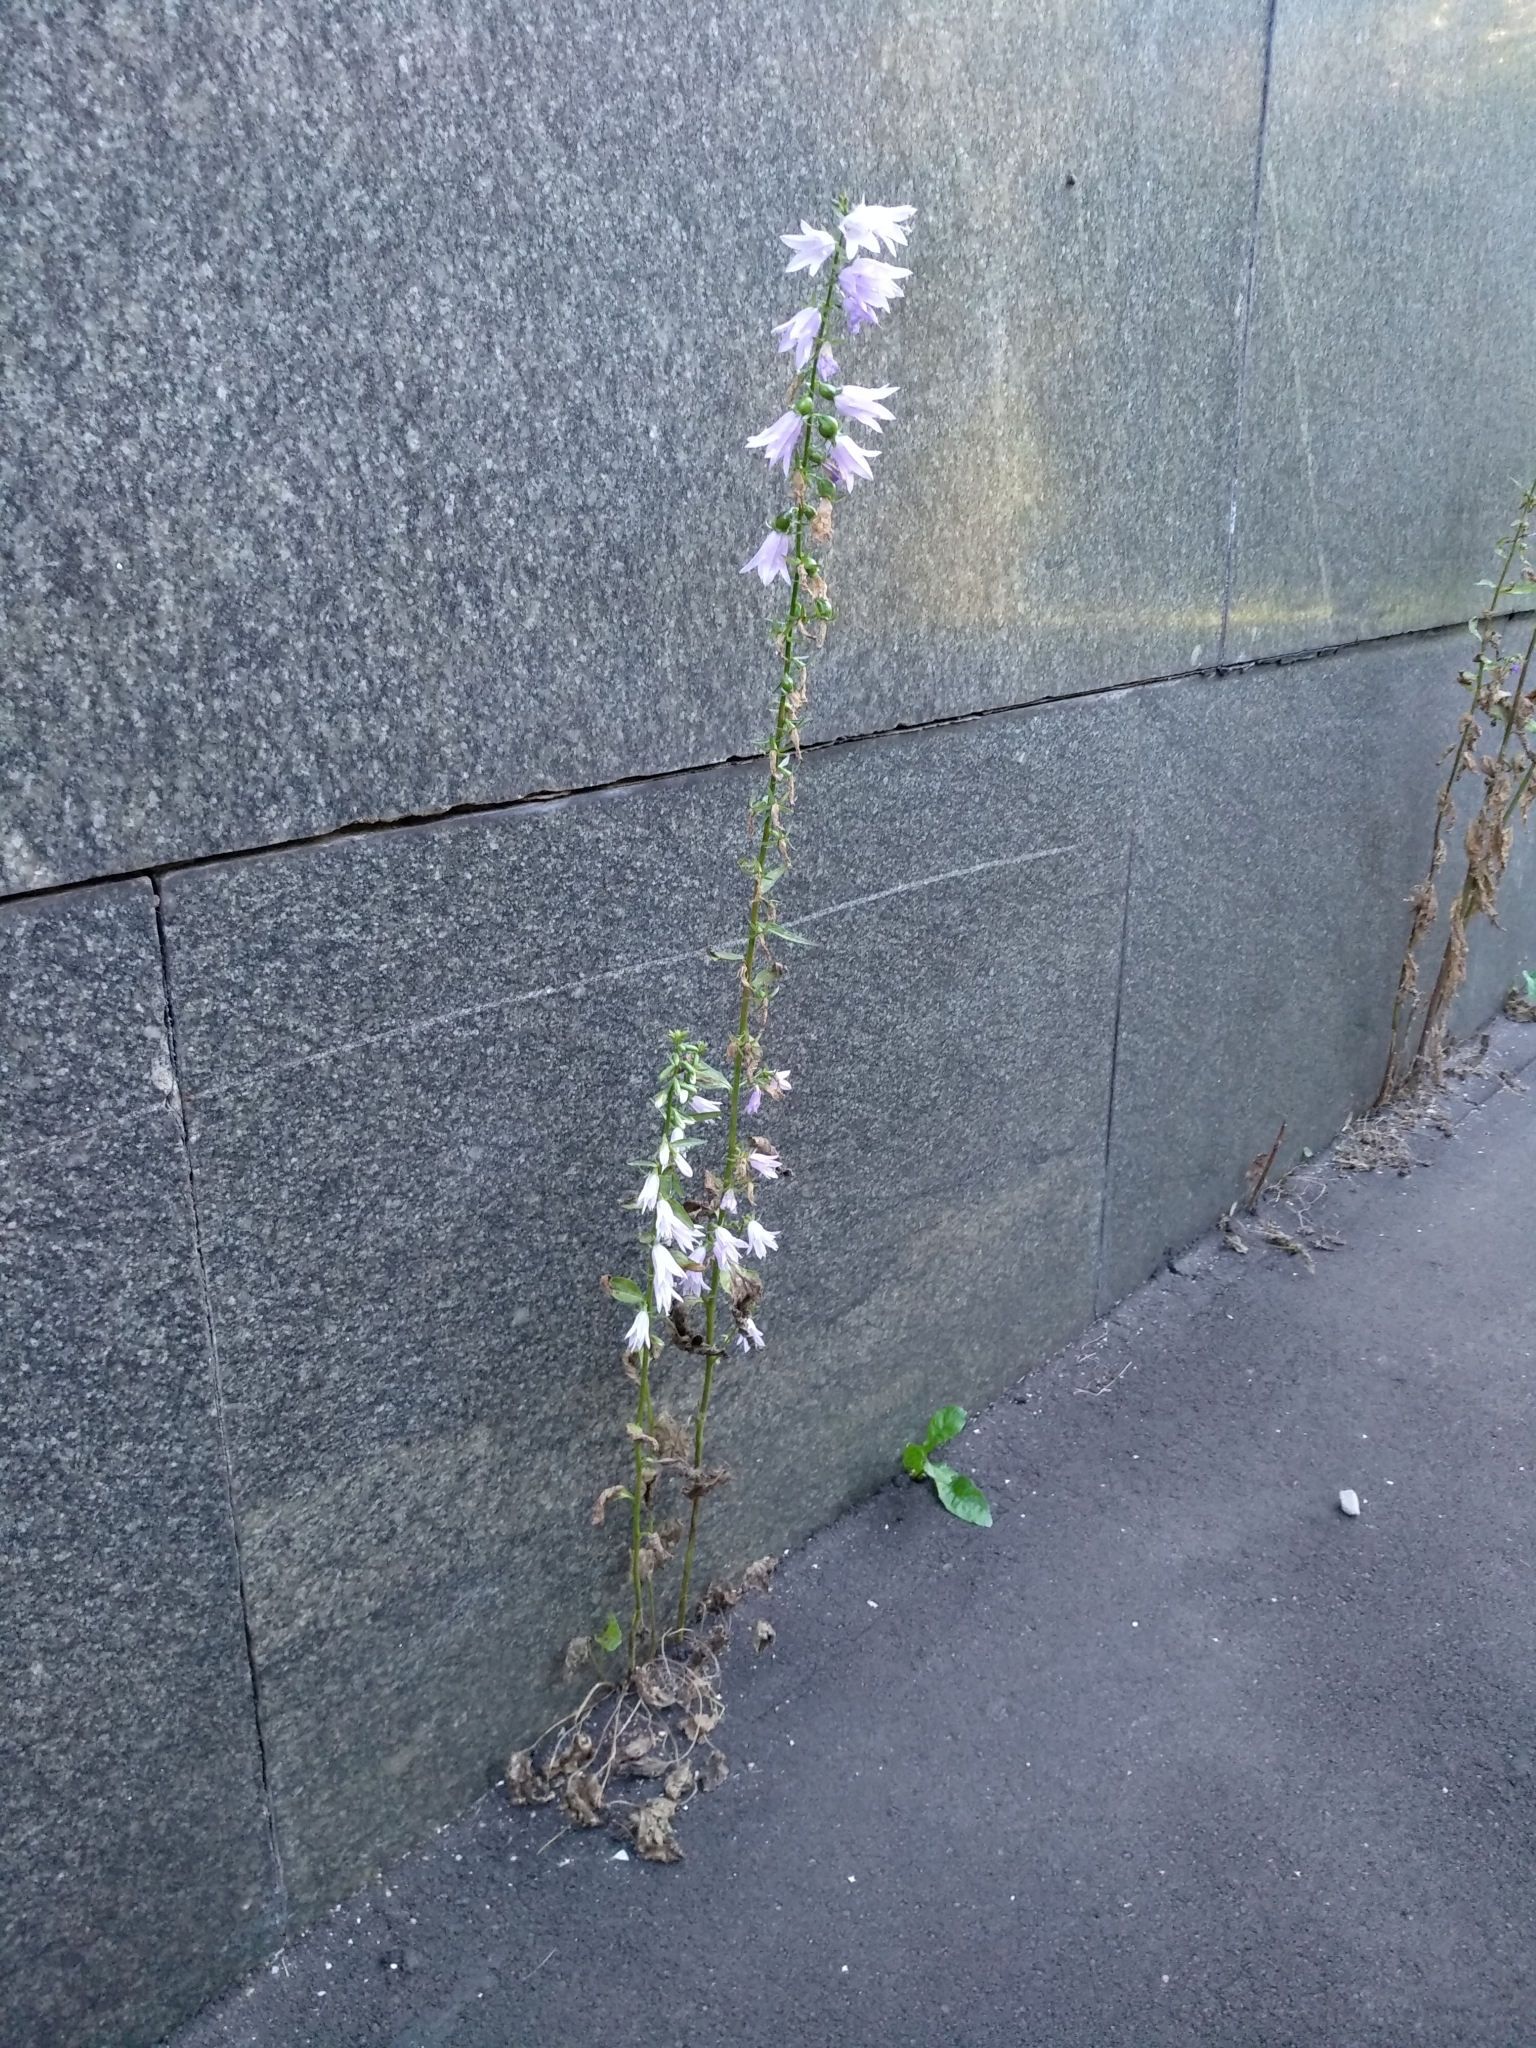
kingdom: Plantae
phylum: Tracheophyta
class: Magnoliopsida
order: Asterales
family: Campanulaceae
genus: Campanula
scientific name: Campanula rapunculoides
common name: Creeping bellflower
